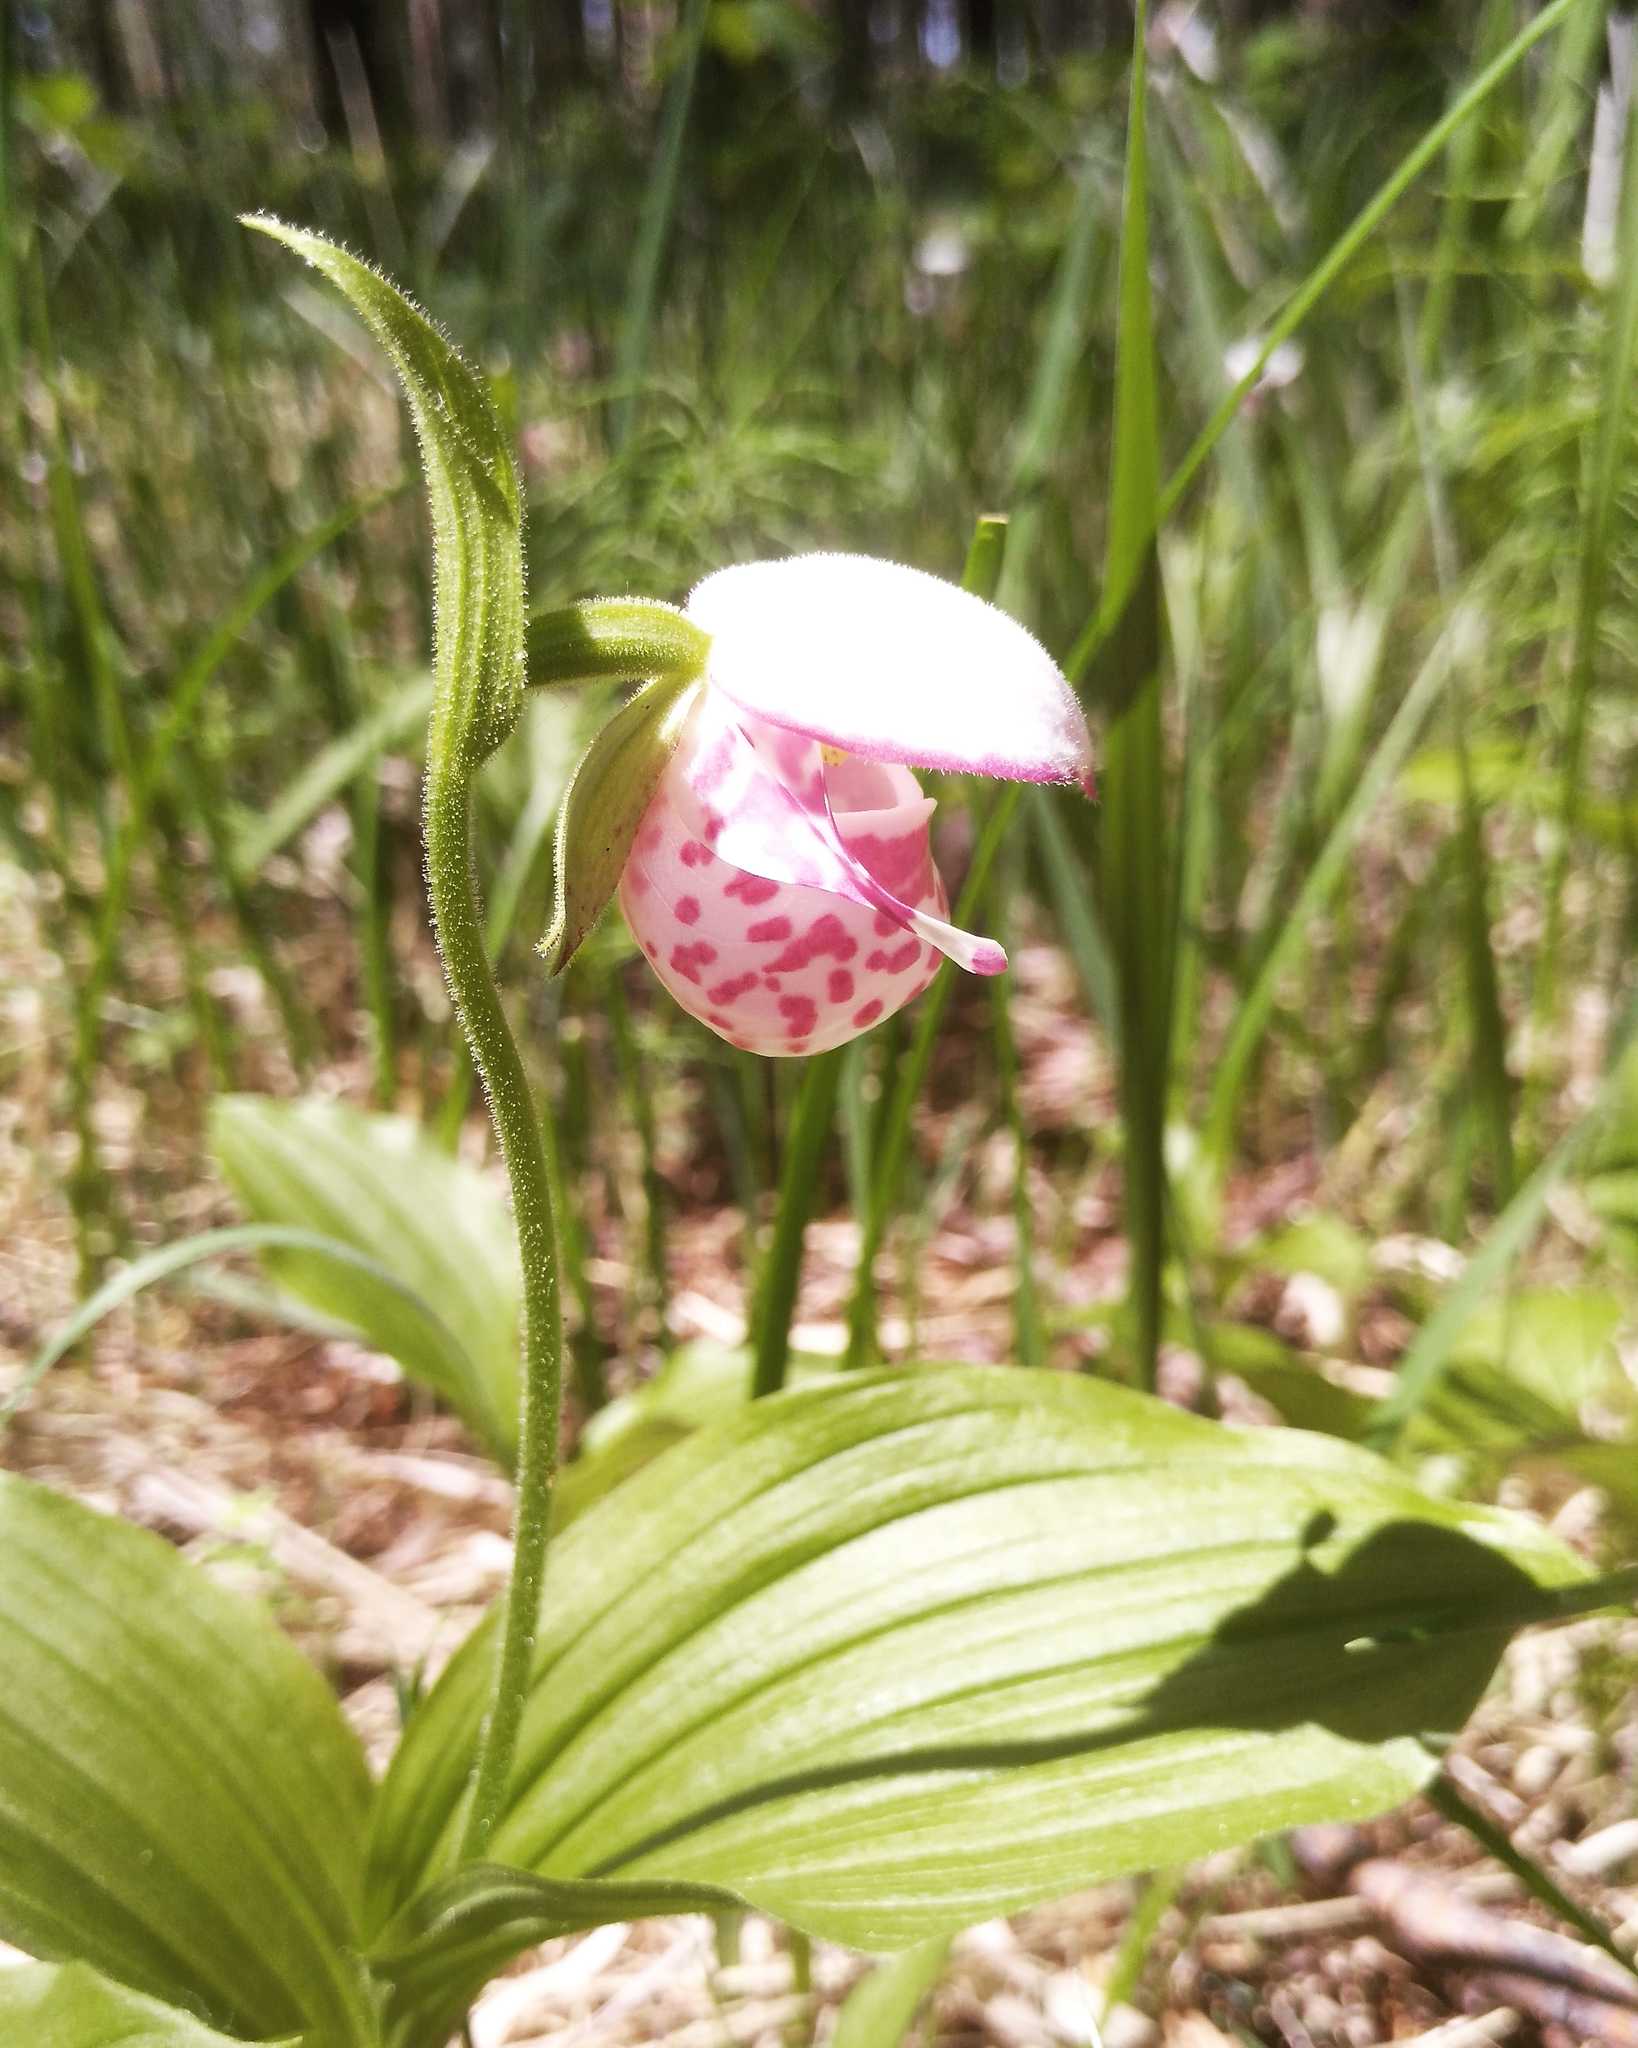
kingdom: Plantae
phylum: Tracheophyta
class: Liliopsida
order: Asparagales
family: Orchidaceae
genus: Cypripedium
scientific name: Cypripedium guttatum
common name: Pink lady slipper
